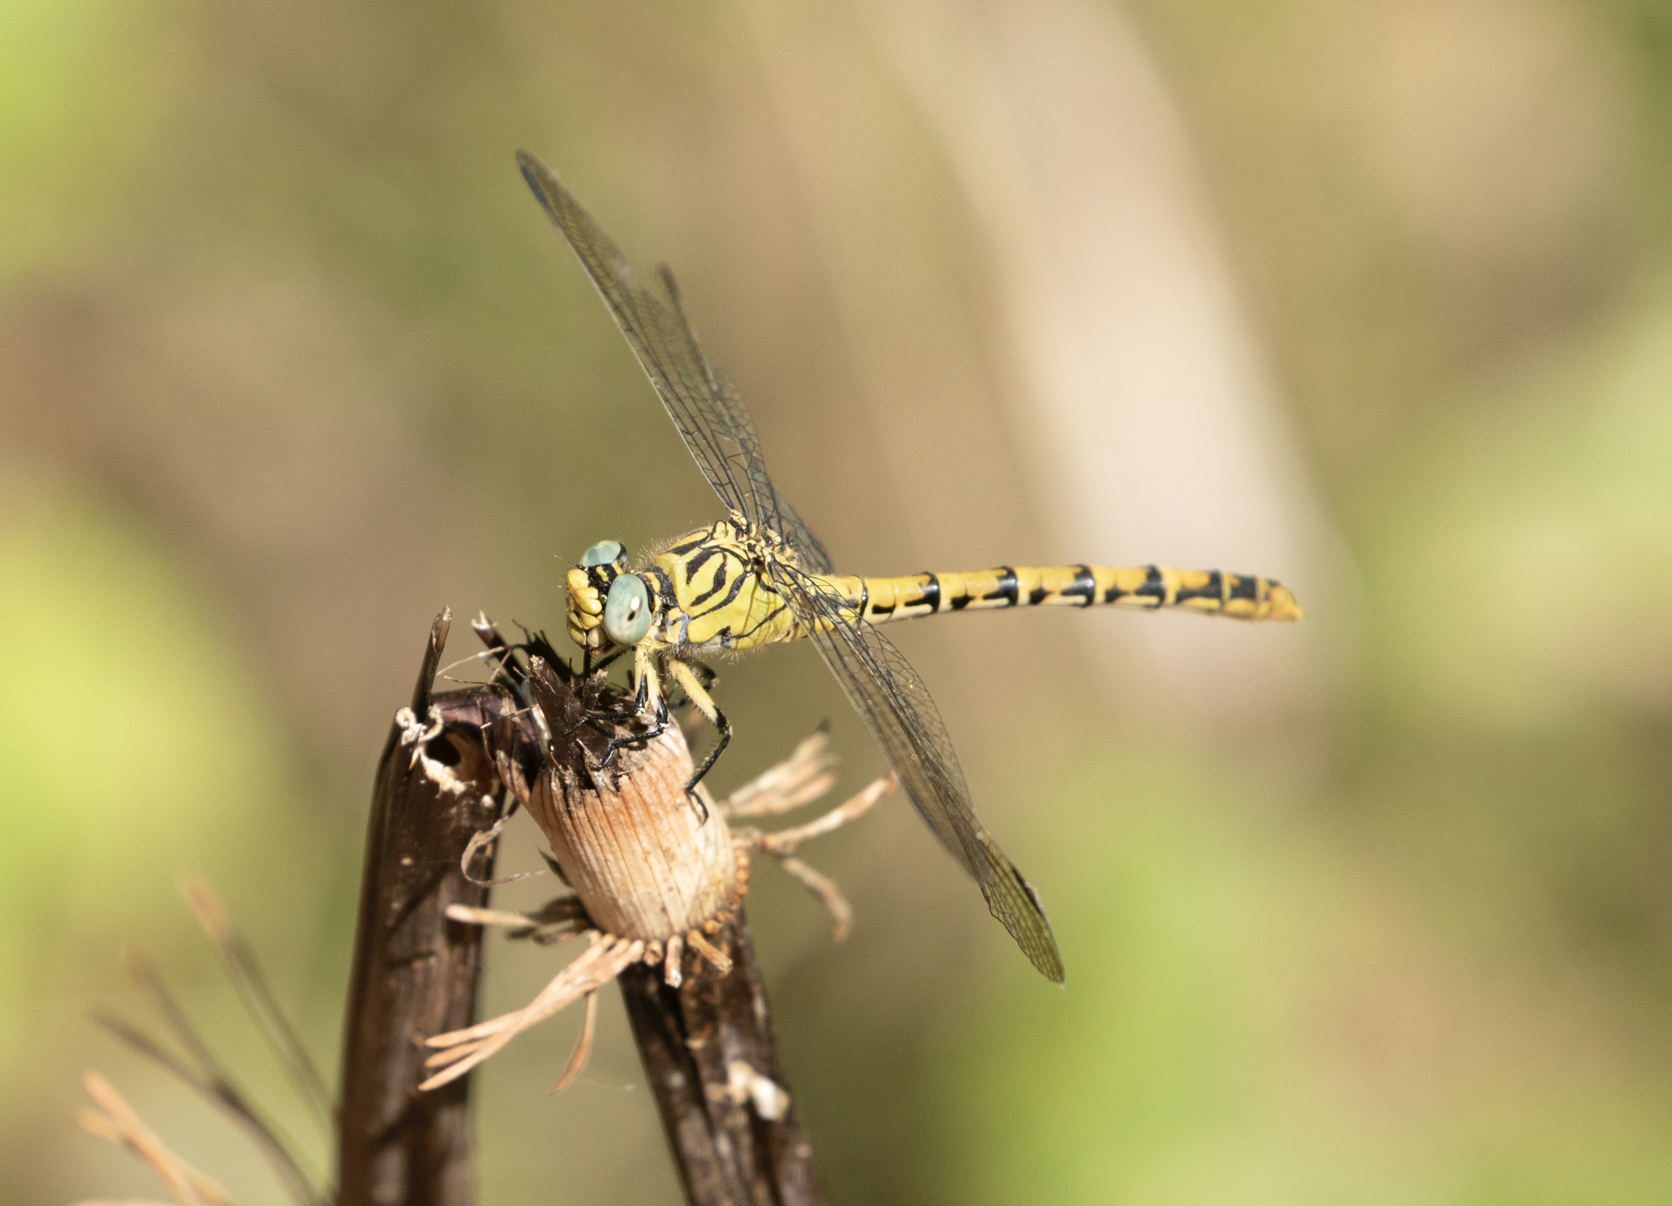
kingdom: Animalia
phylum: Arthropoda
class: Insecta
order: Odonata
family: Gomphidae
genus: Onychogomphus
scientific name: Onychogomphus forcipatus
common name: Small pincertail
